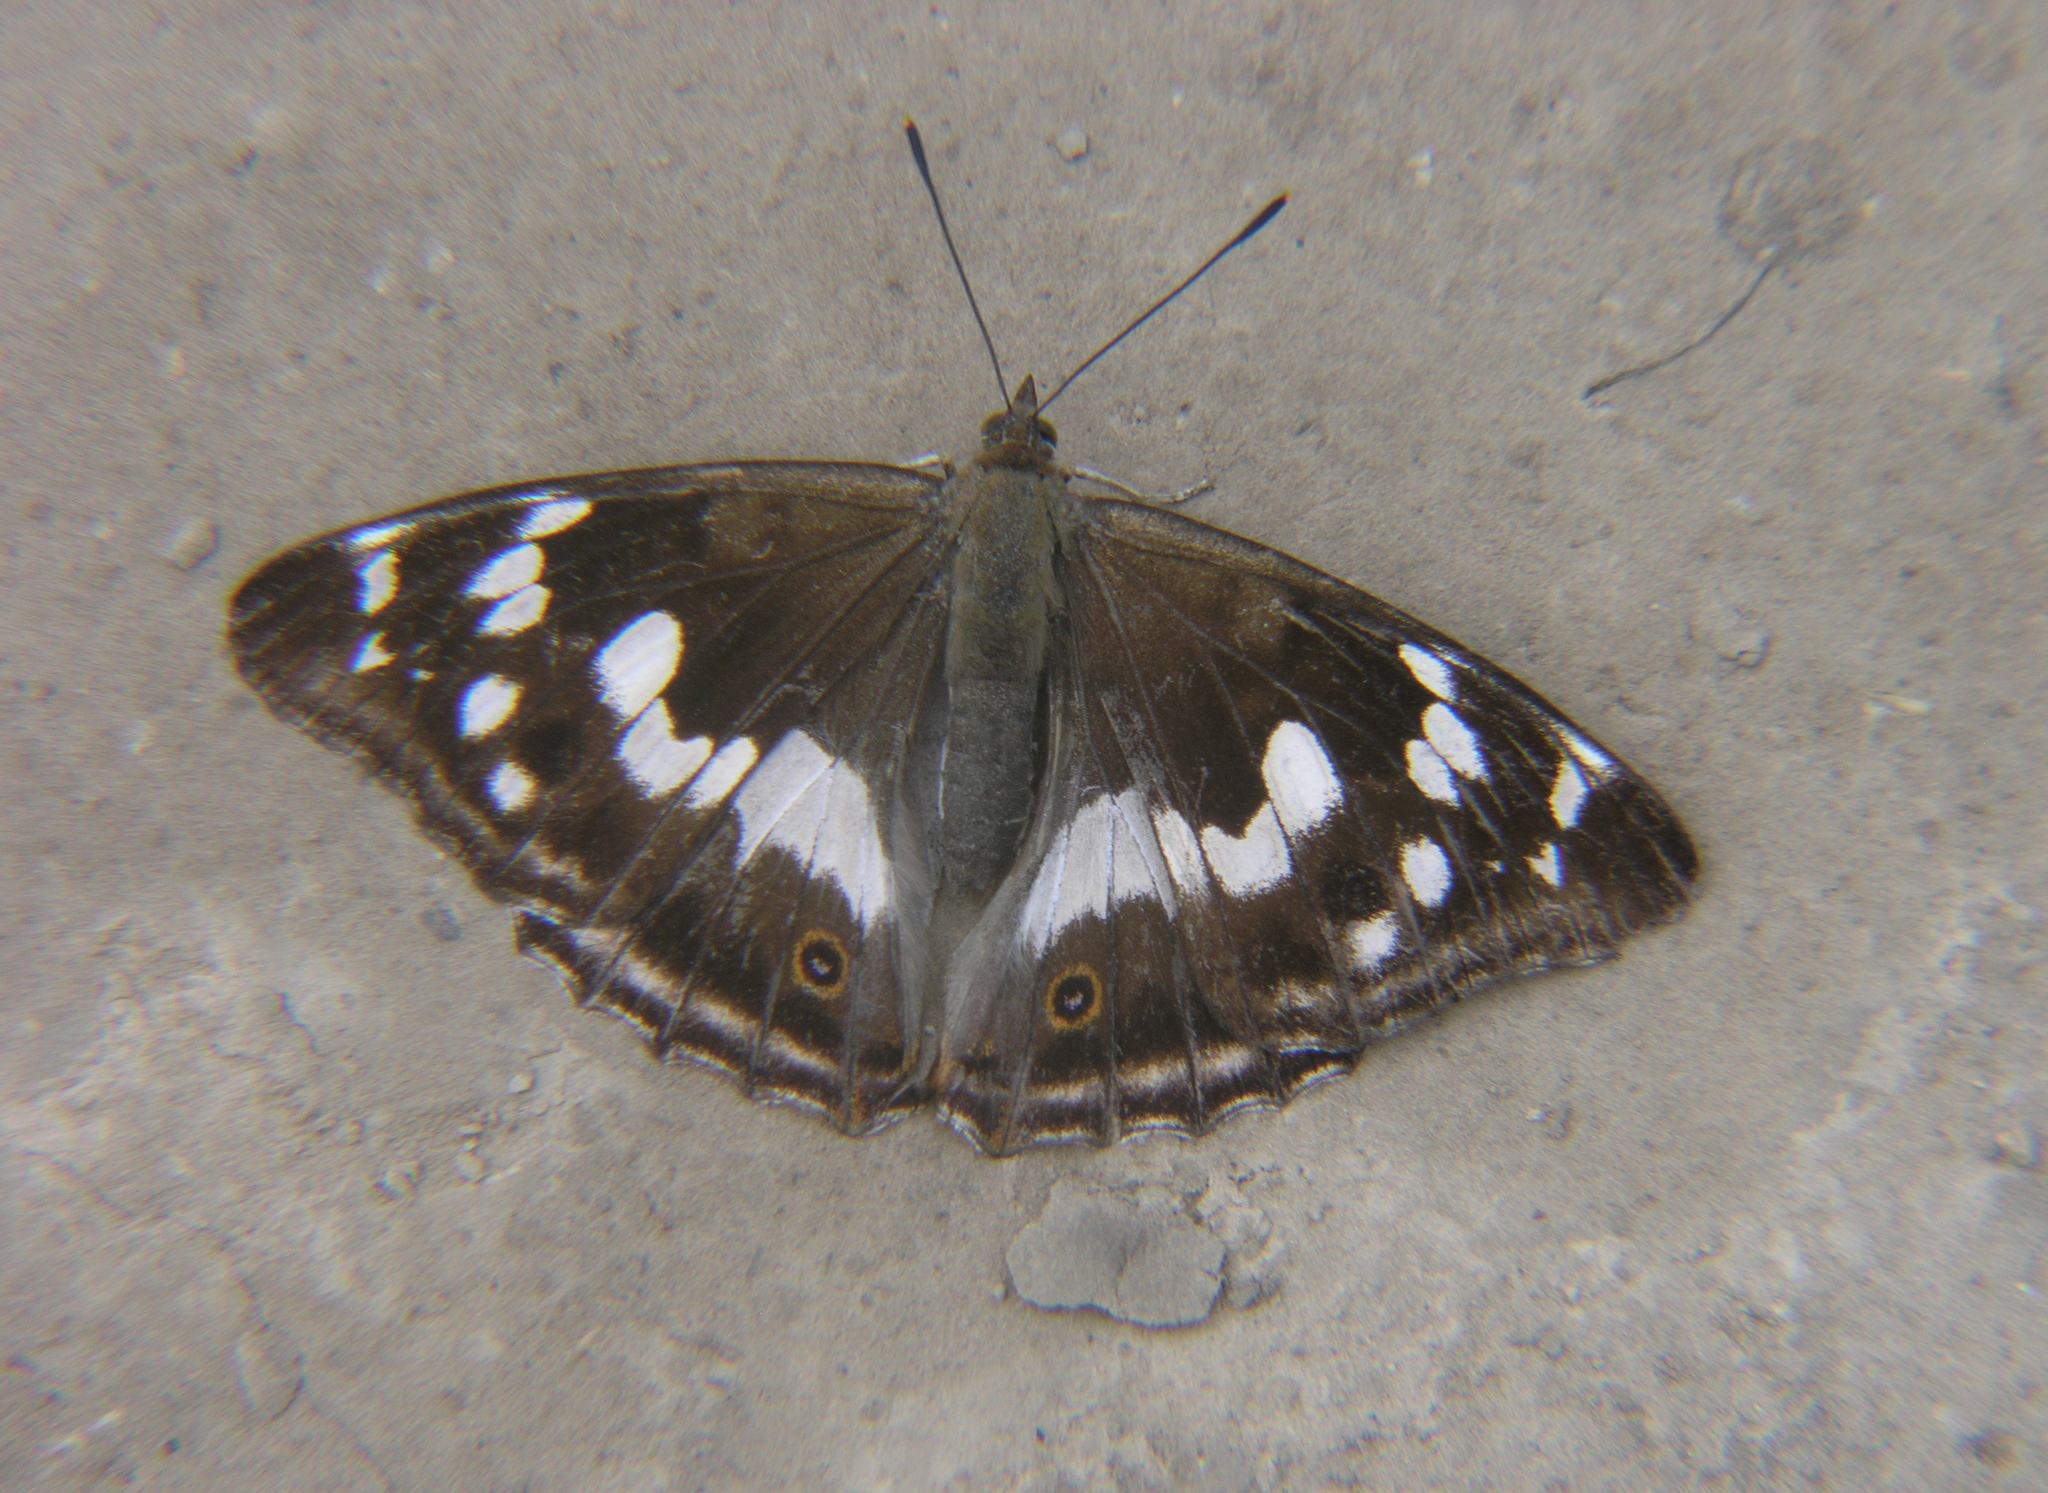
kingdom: Animalia
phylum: Arthropoda
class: Insecta
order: Lepidoptera
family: Nymphalidae
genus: Apatura
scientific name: Apatura iris
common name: Purple emperor
